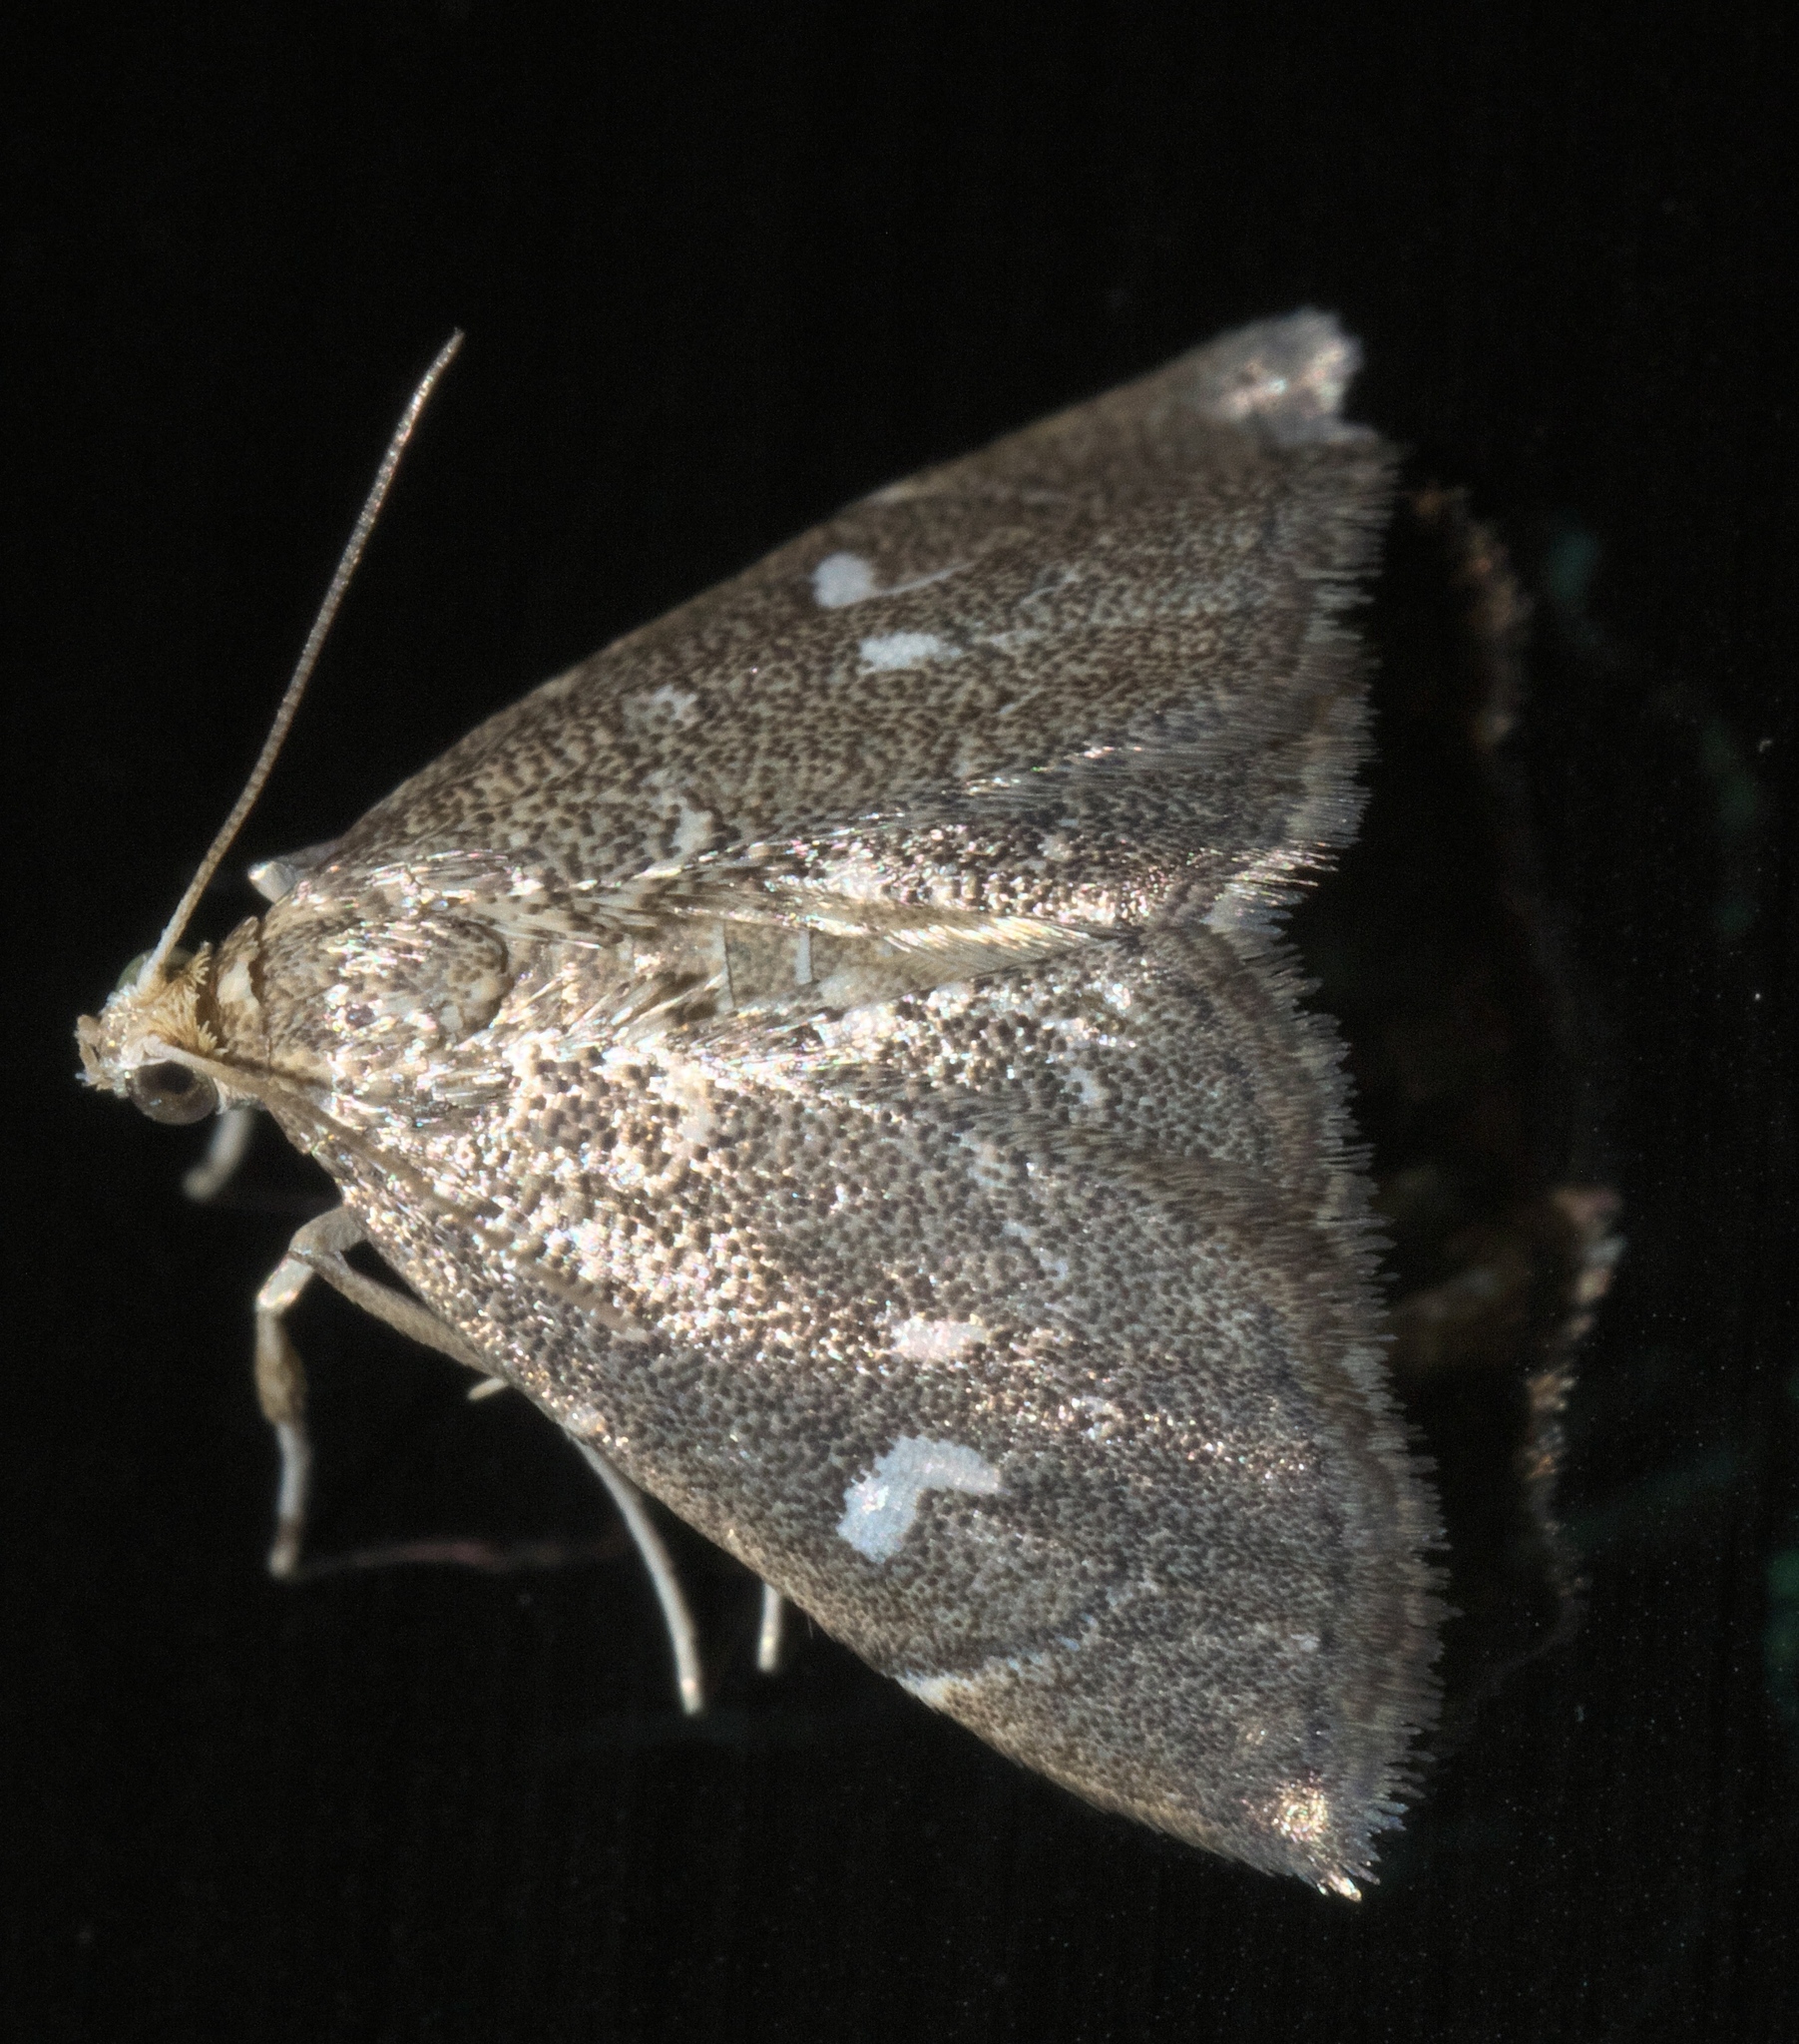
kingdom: Animalia
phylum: Arthropoda
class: Insecta
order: Lepidoptera
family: Crambidae
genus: Nephrogramma
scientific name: Nephrogramma reniculalis
